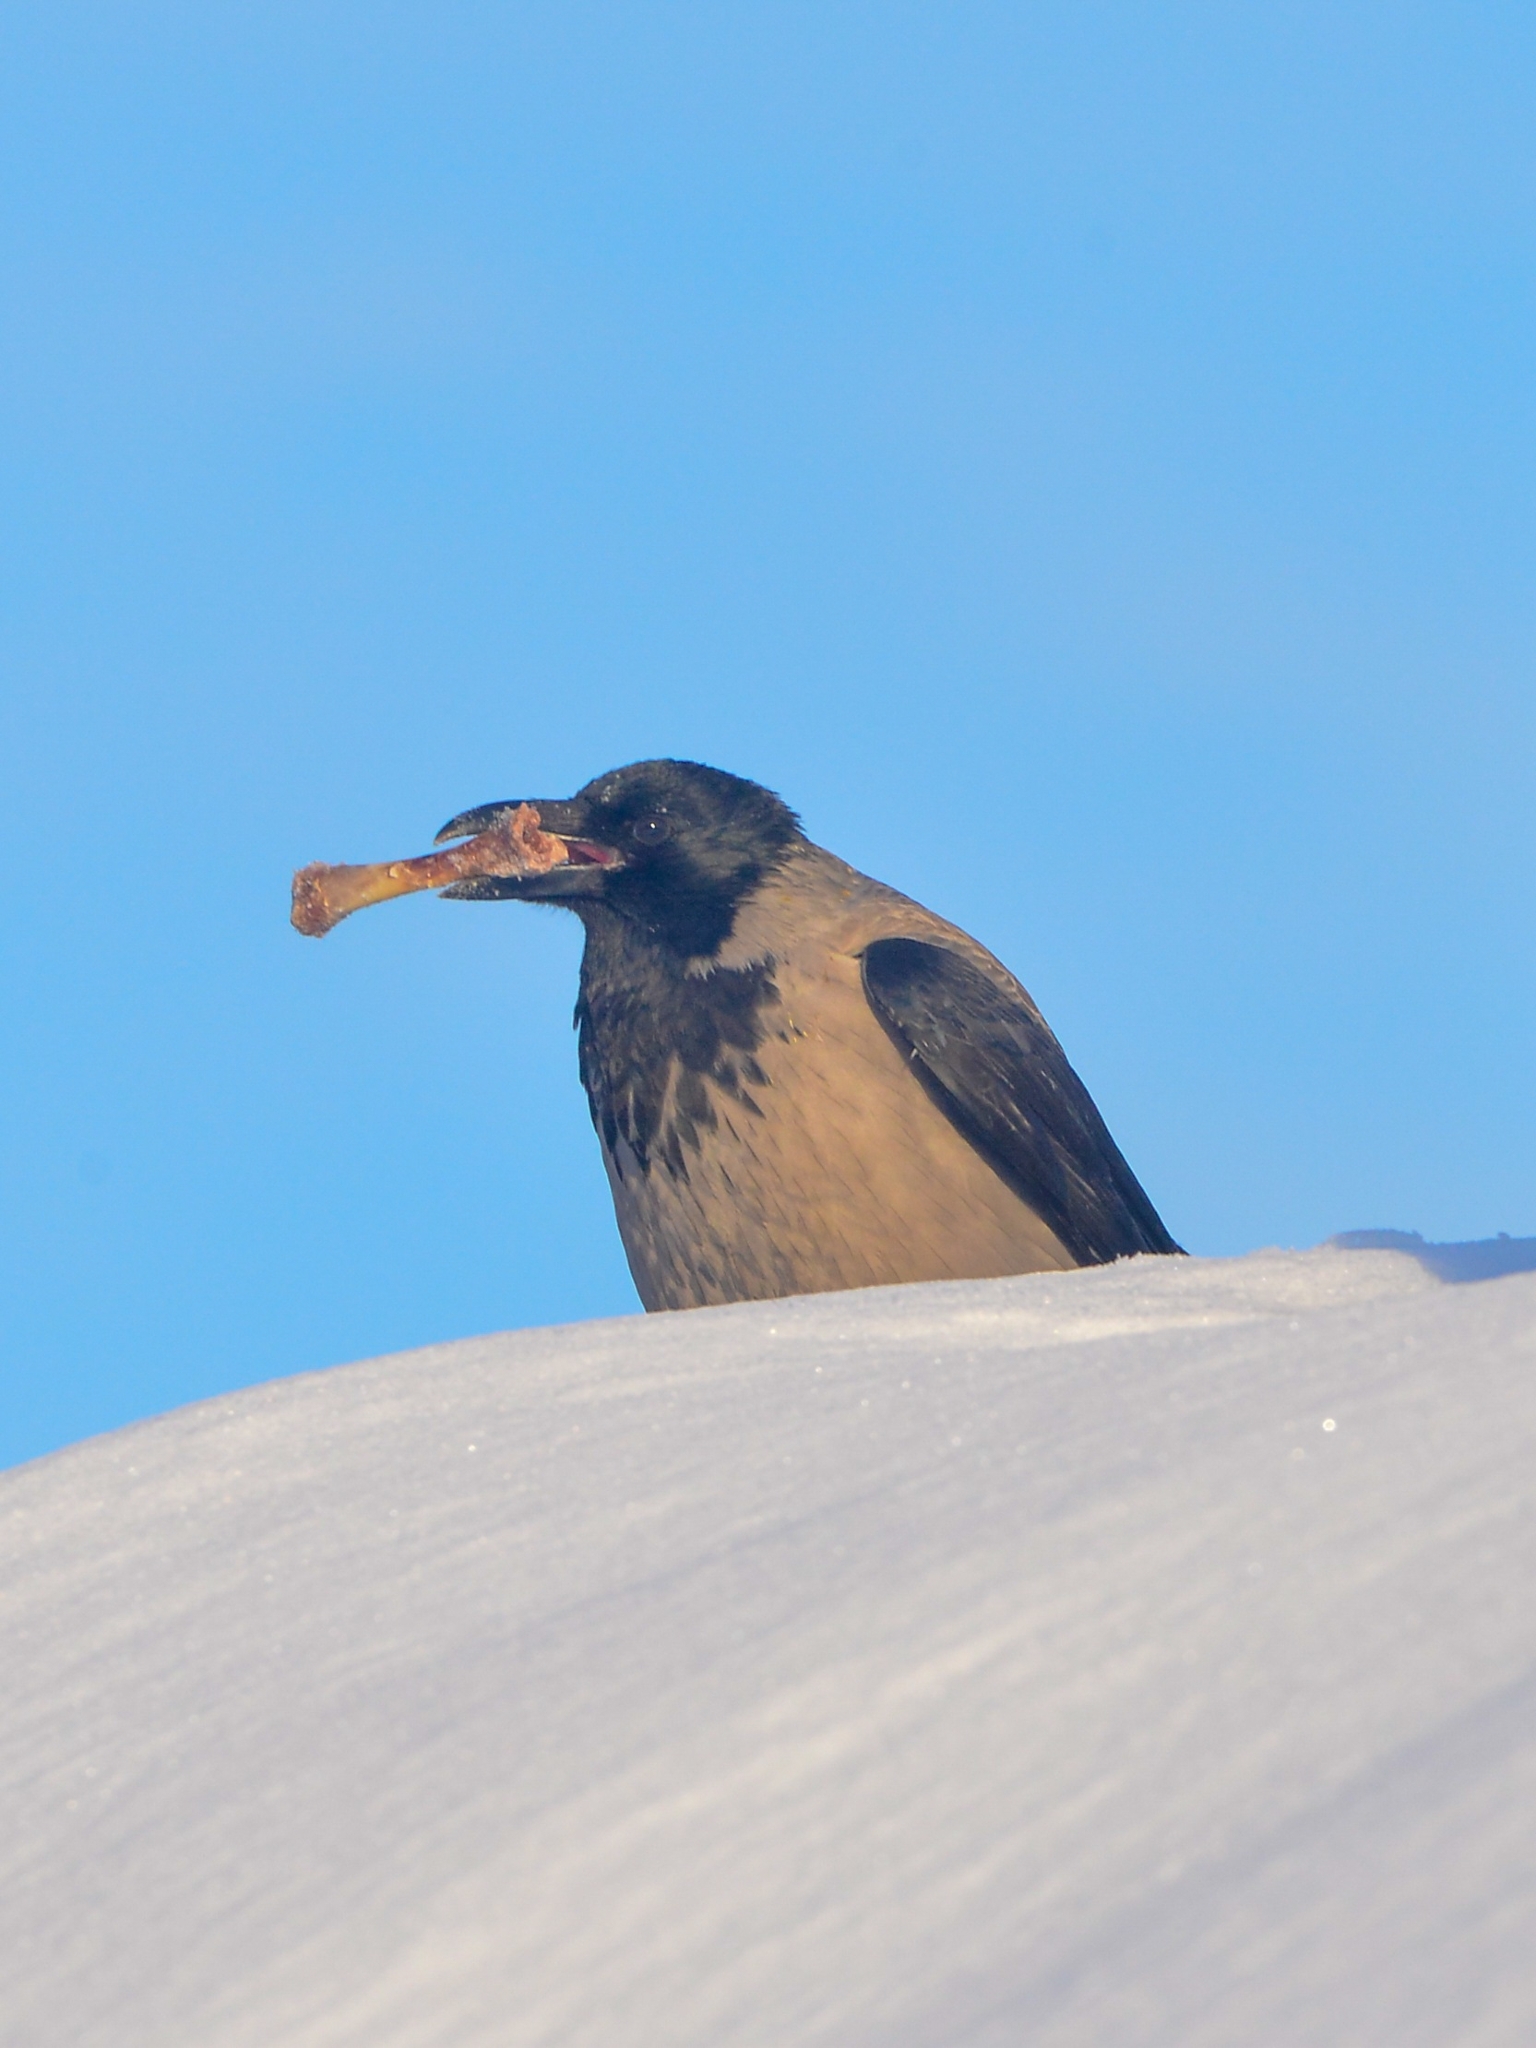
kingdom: Animalia
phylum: Chordata
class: Aves
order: Passeriformes
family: Corvidae
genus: Corvus
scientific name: Corvus cornix
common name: Hooded crow
